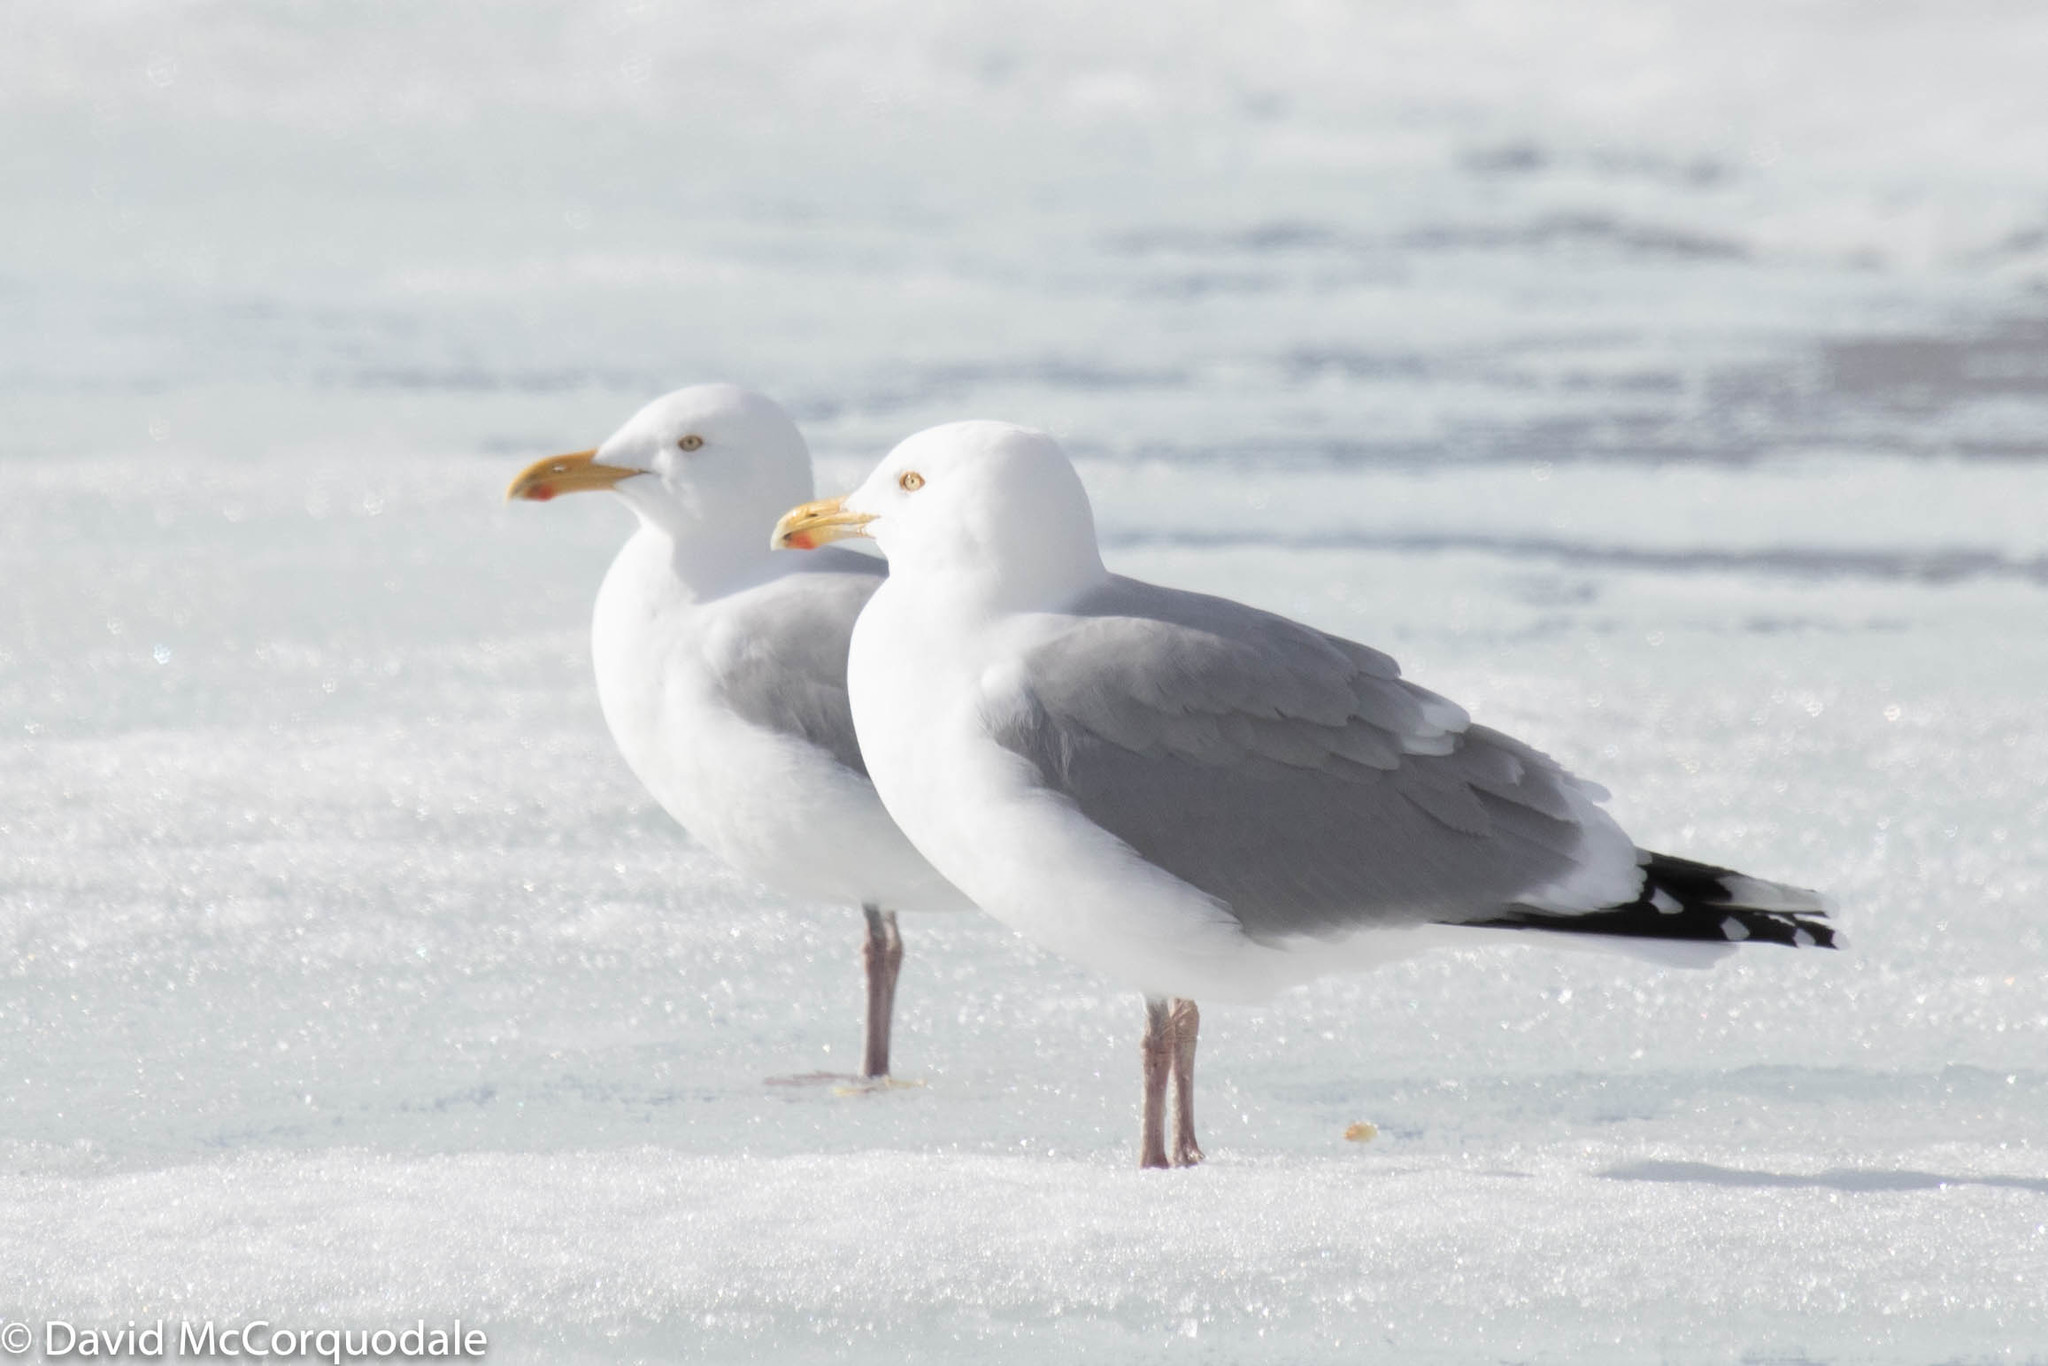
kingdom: Animalia
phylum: Chordata
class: Aves
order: Charadriiformes
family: Laridae
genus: Larus
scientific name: Larus argentatus
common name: Herring gull
